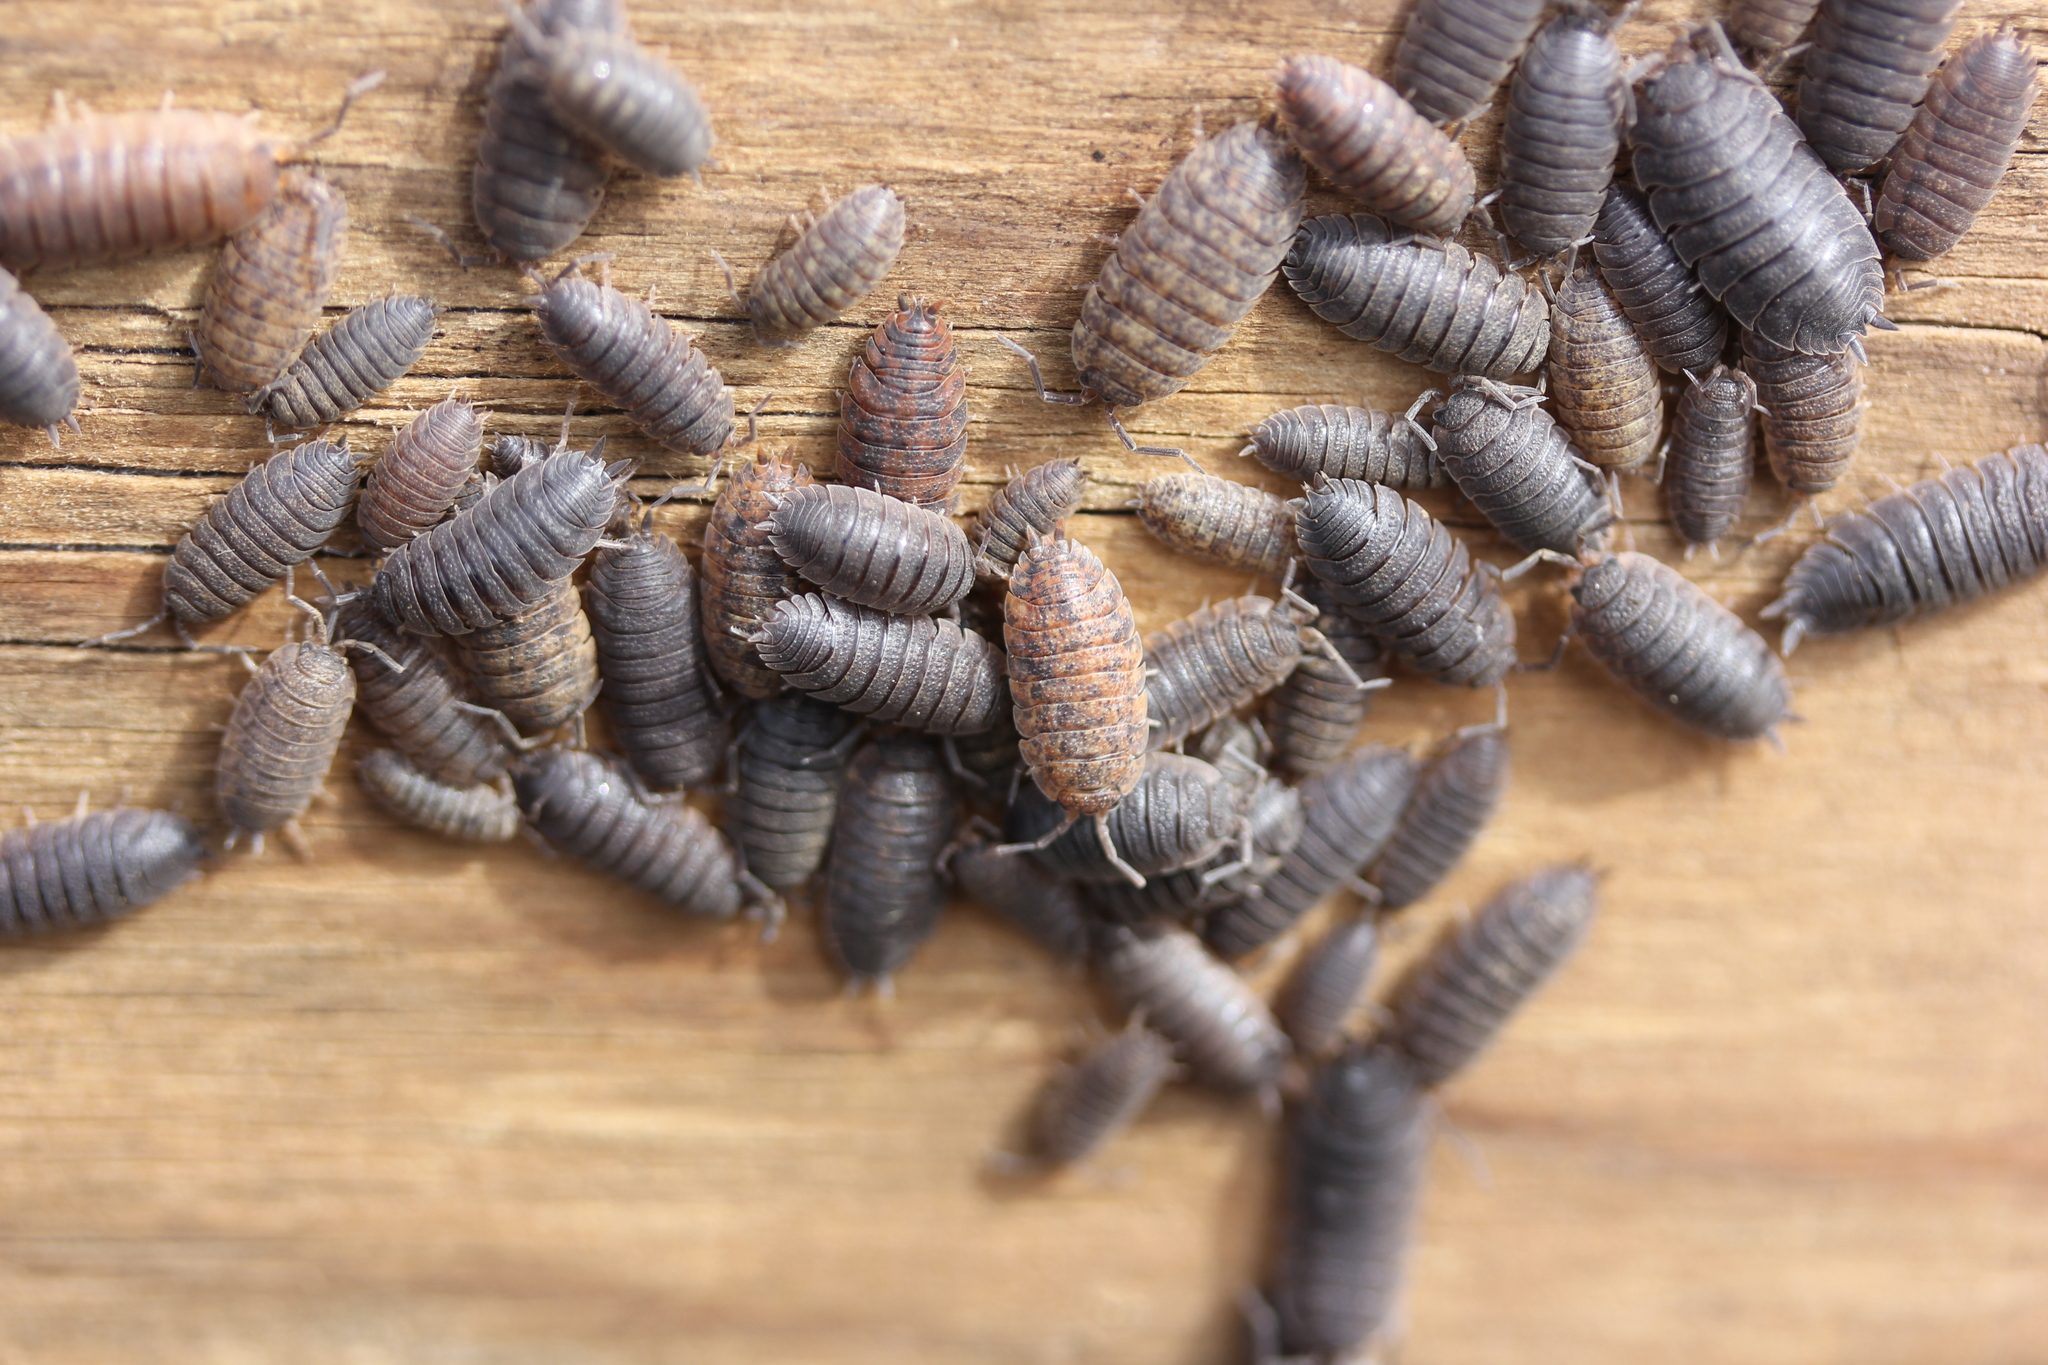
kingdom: Animalia
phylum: Arthropoda
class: Malacostraca
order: Isopoda
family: Porcellionidae
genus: Porcellio
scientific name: Porcellio scaber
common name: Common rough woodlouse
